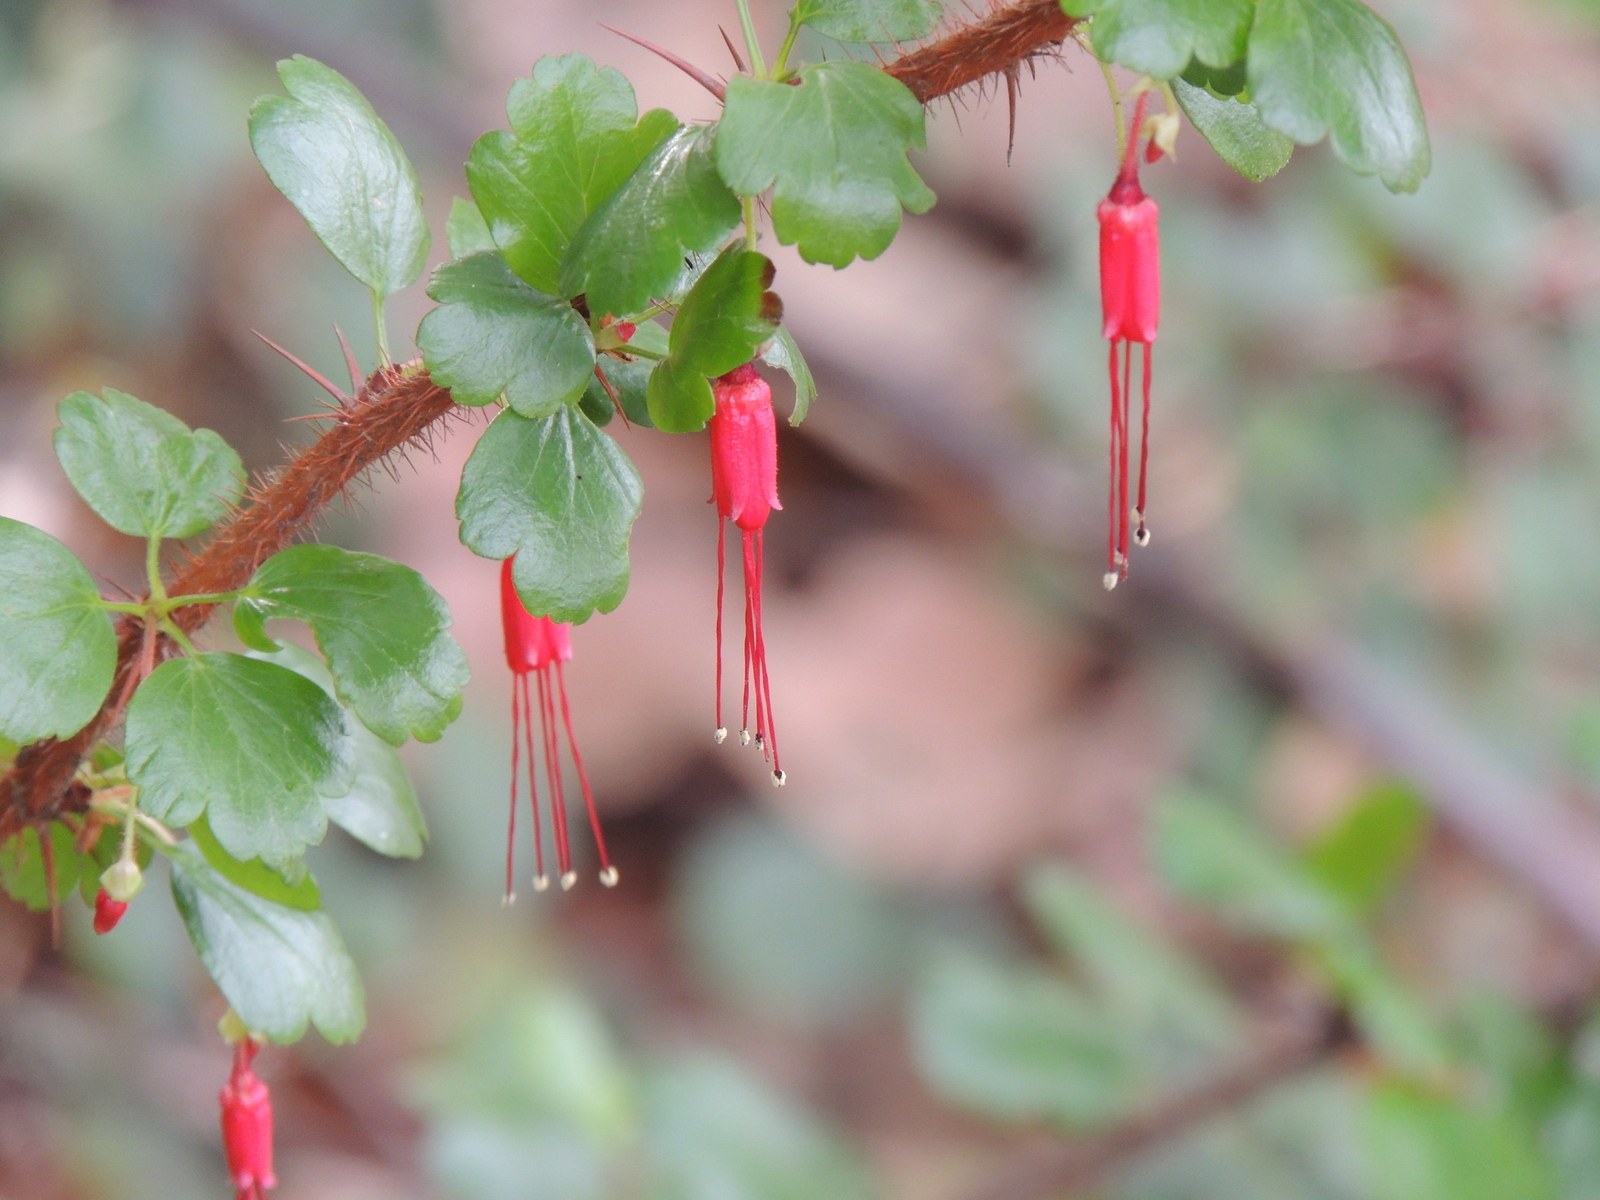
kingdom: Plantae
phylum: Tracheophyta
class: Magnoliopsida
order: Saxifragales
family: Grossulariaceae
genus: Ribes
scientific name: Ribes speciosum
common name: Fuchsia-flower gooseberry
